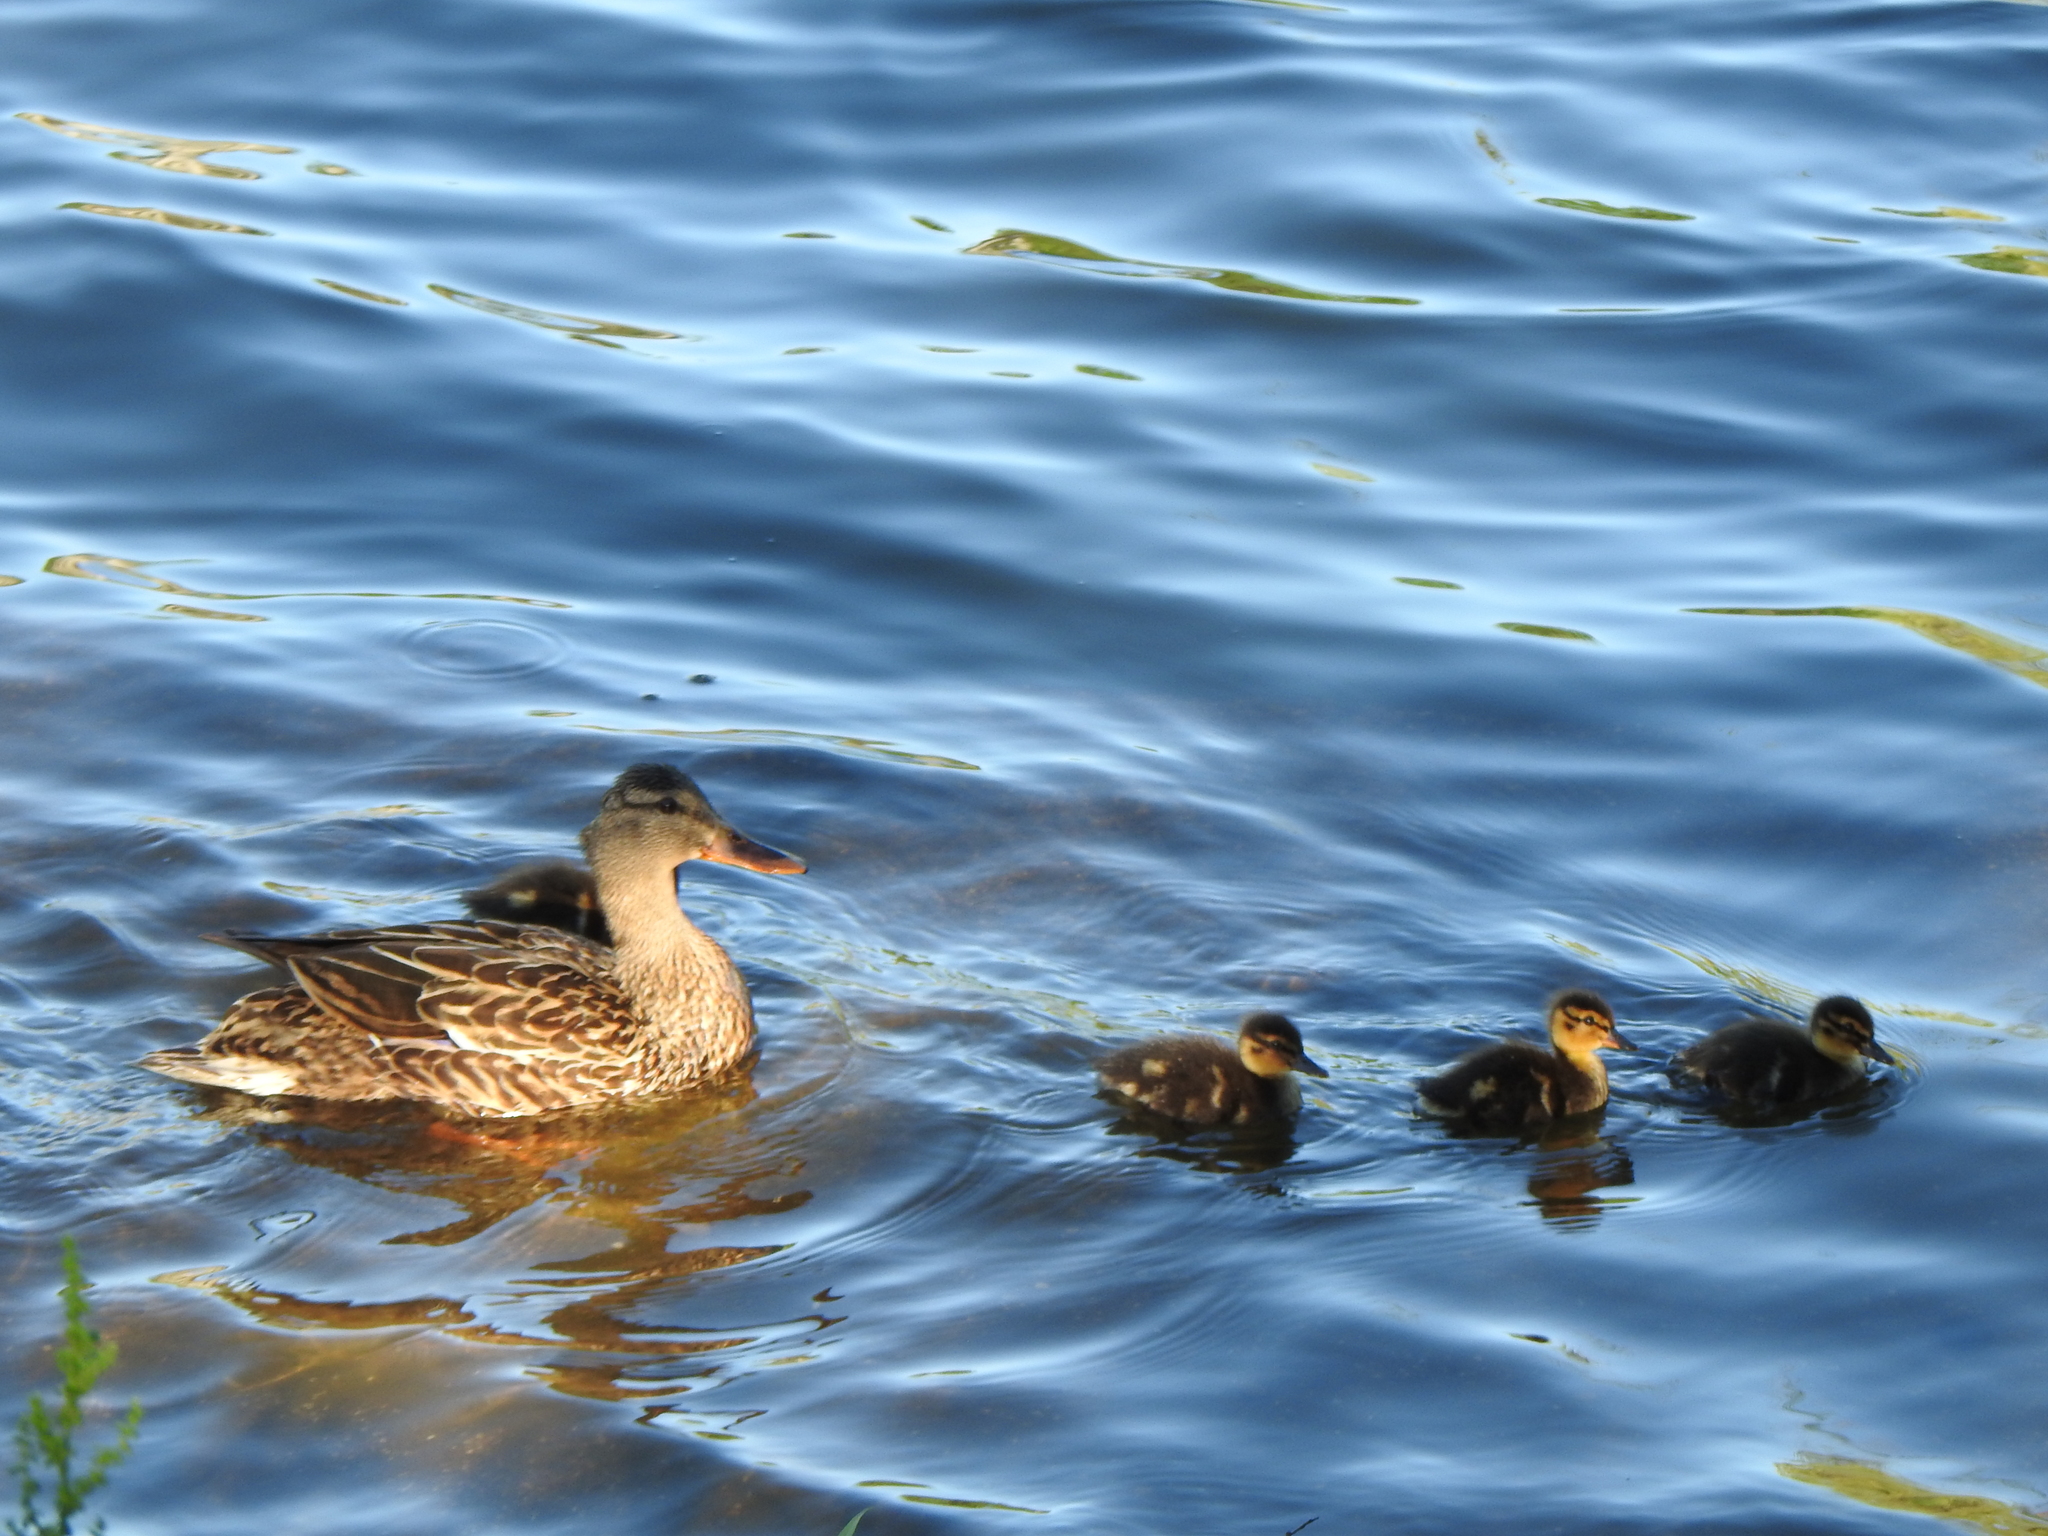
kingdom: Animalia
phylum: Chordata
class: Aves
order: Anseriformes
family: Anatidae
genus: Anas
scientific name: Anas platyrhynchos
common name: Mallard
